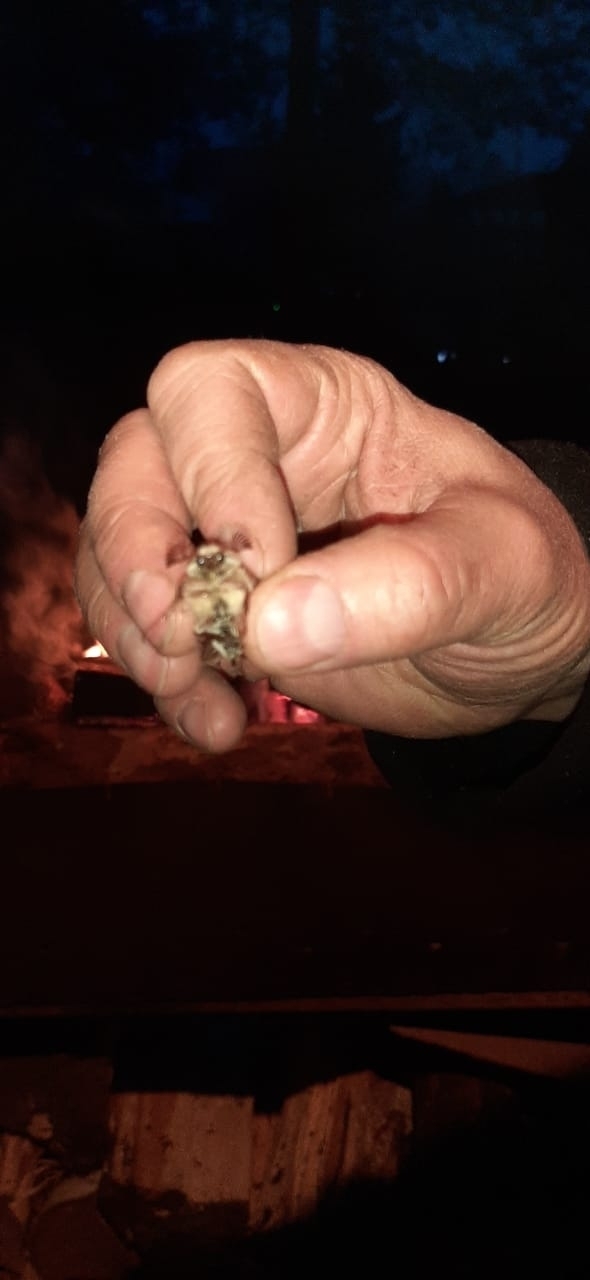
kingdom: Animalia
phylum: Arthropoda
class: Insecta
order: Coleoptera
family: Scarabaeidae
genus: Melolontha
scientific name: Melolontha hippocastani
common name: Chestnut cockchafer
